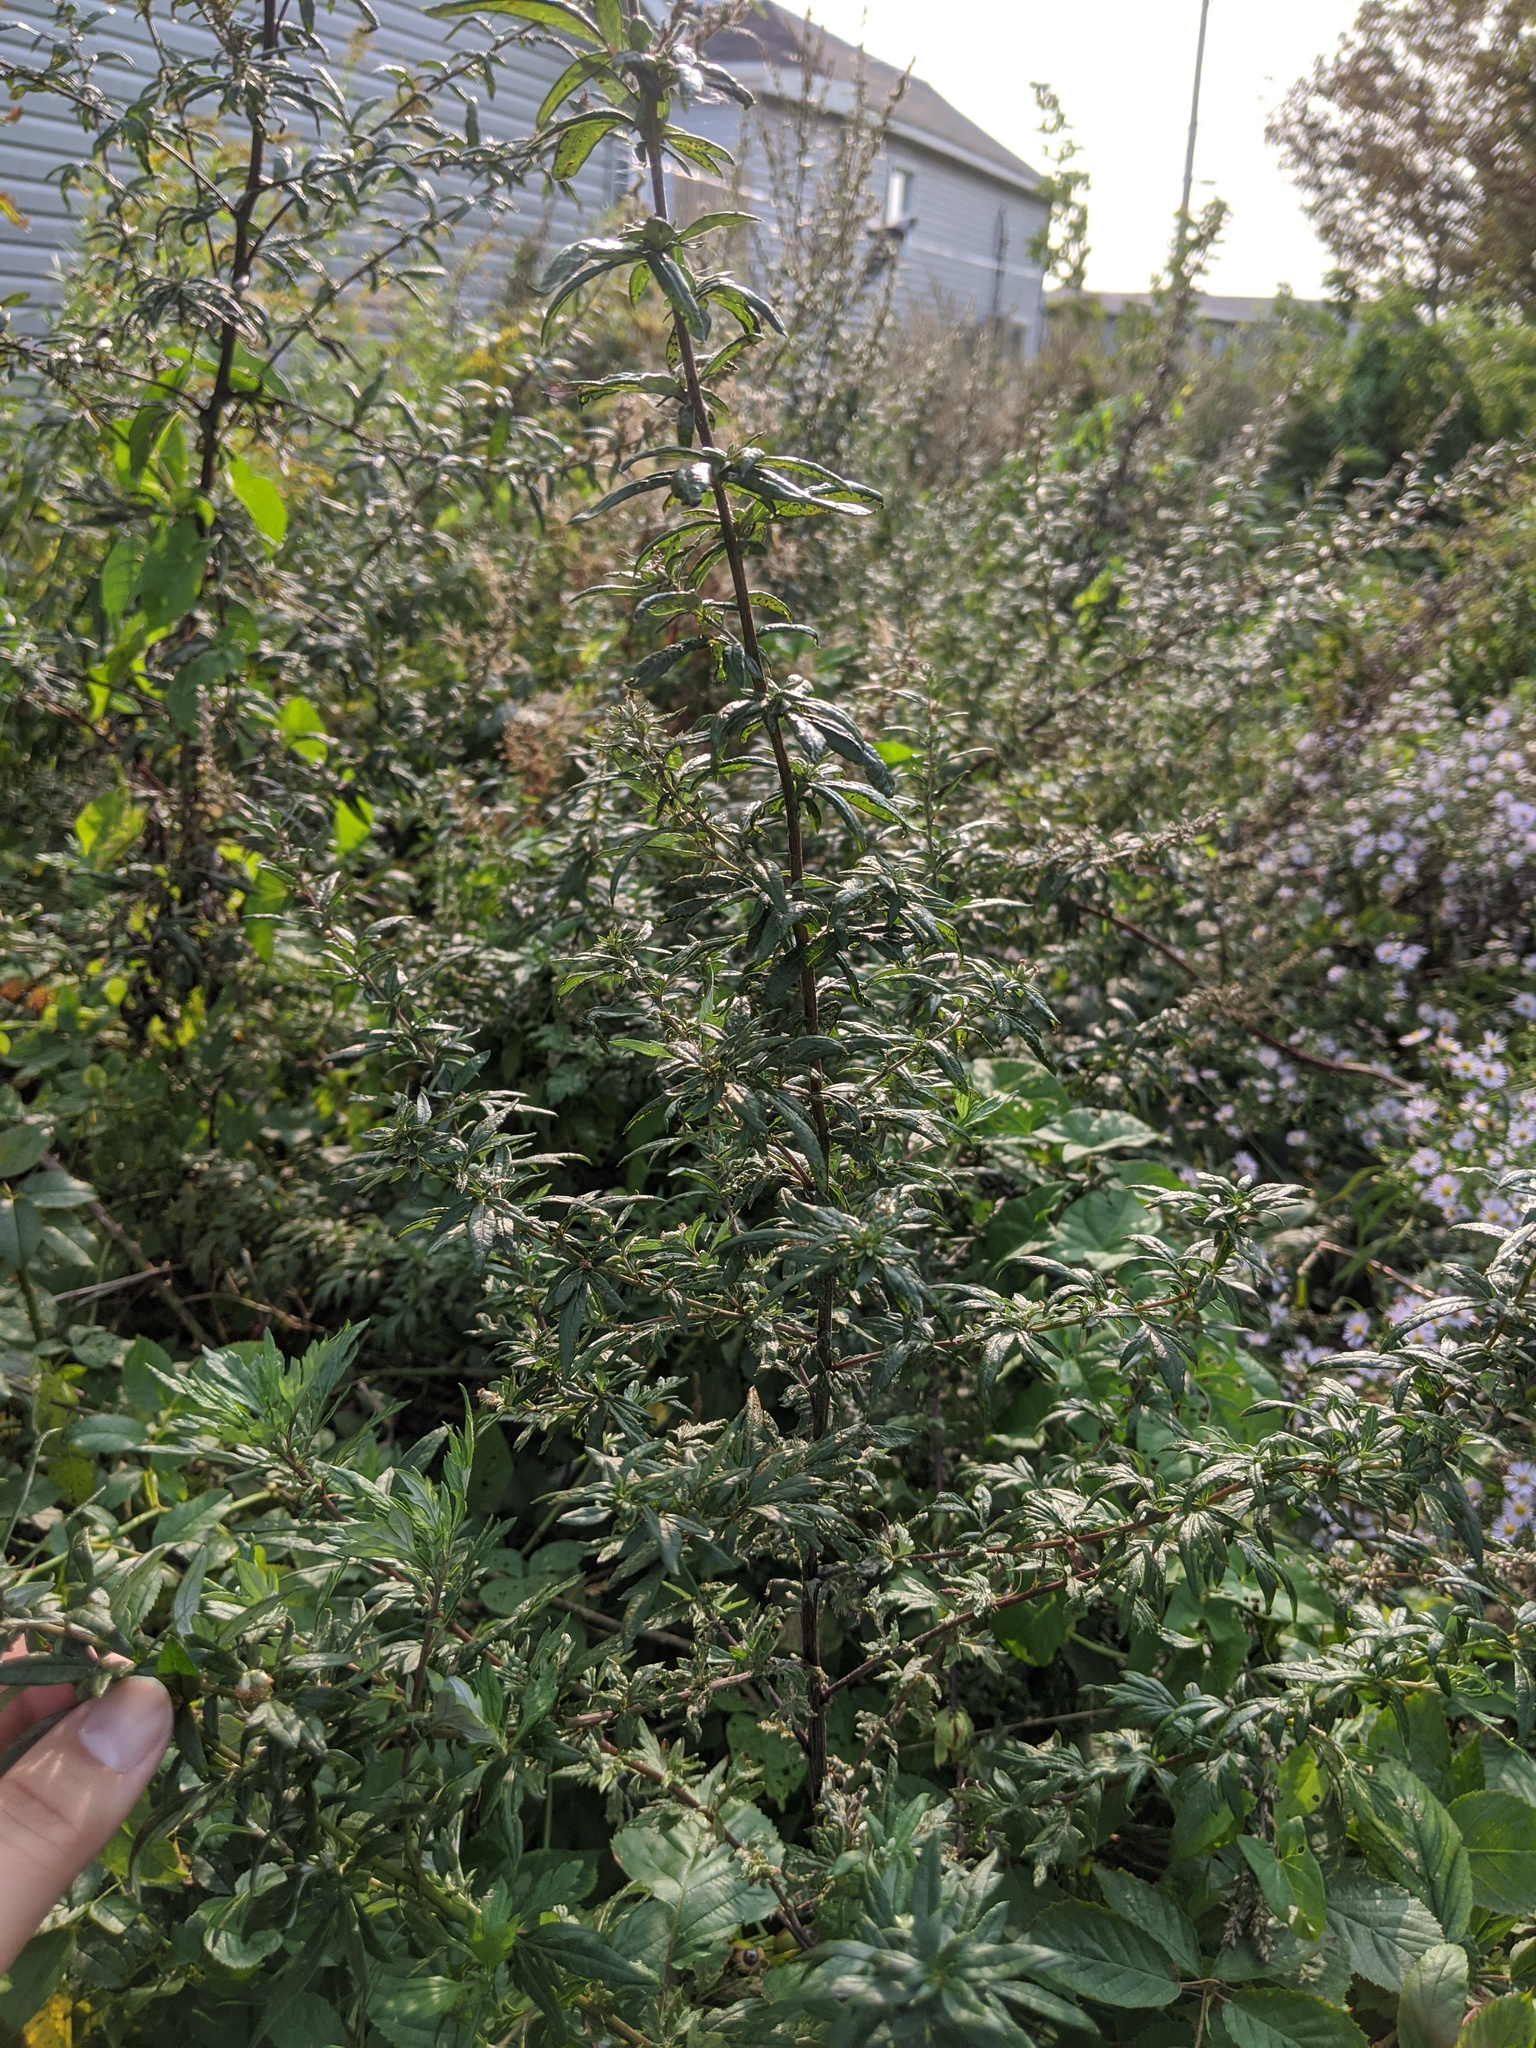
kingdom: Plantae
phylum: Tracheophyta
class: Magnoliopsida
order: Asterales
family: Asteraceae
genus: Artemisia
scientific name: Artemisia vulgaris
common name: Mugwort
